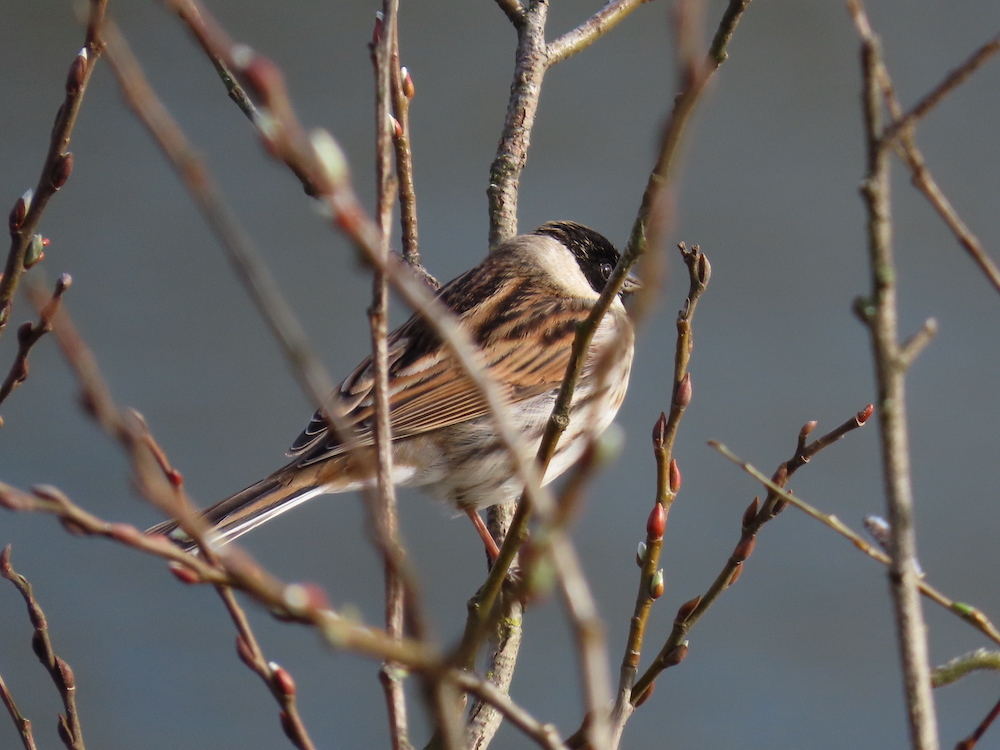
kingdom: Animalia
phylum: Chordata
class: Aves
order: Passeriformes
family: Emberizidae
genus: Emberiza
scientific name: Emberiza schoeniclus
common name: Reed bunting
